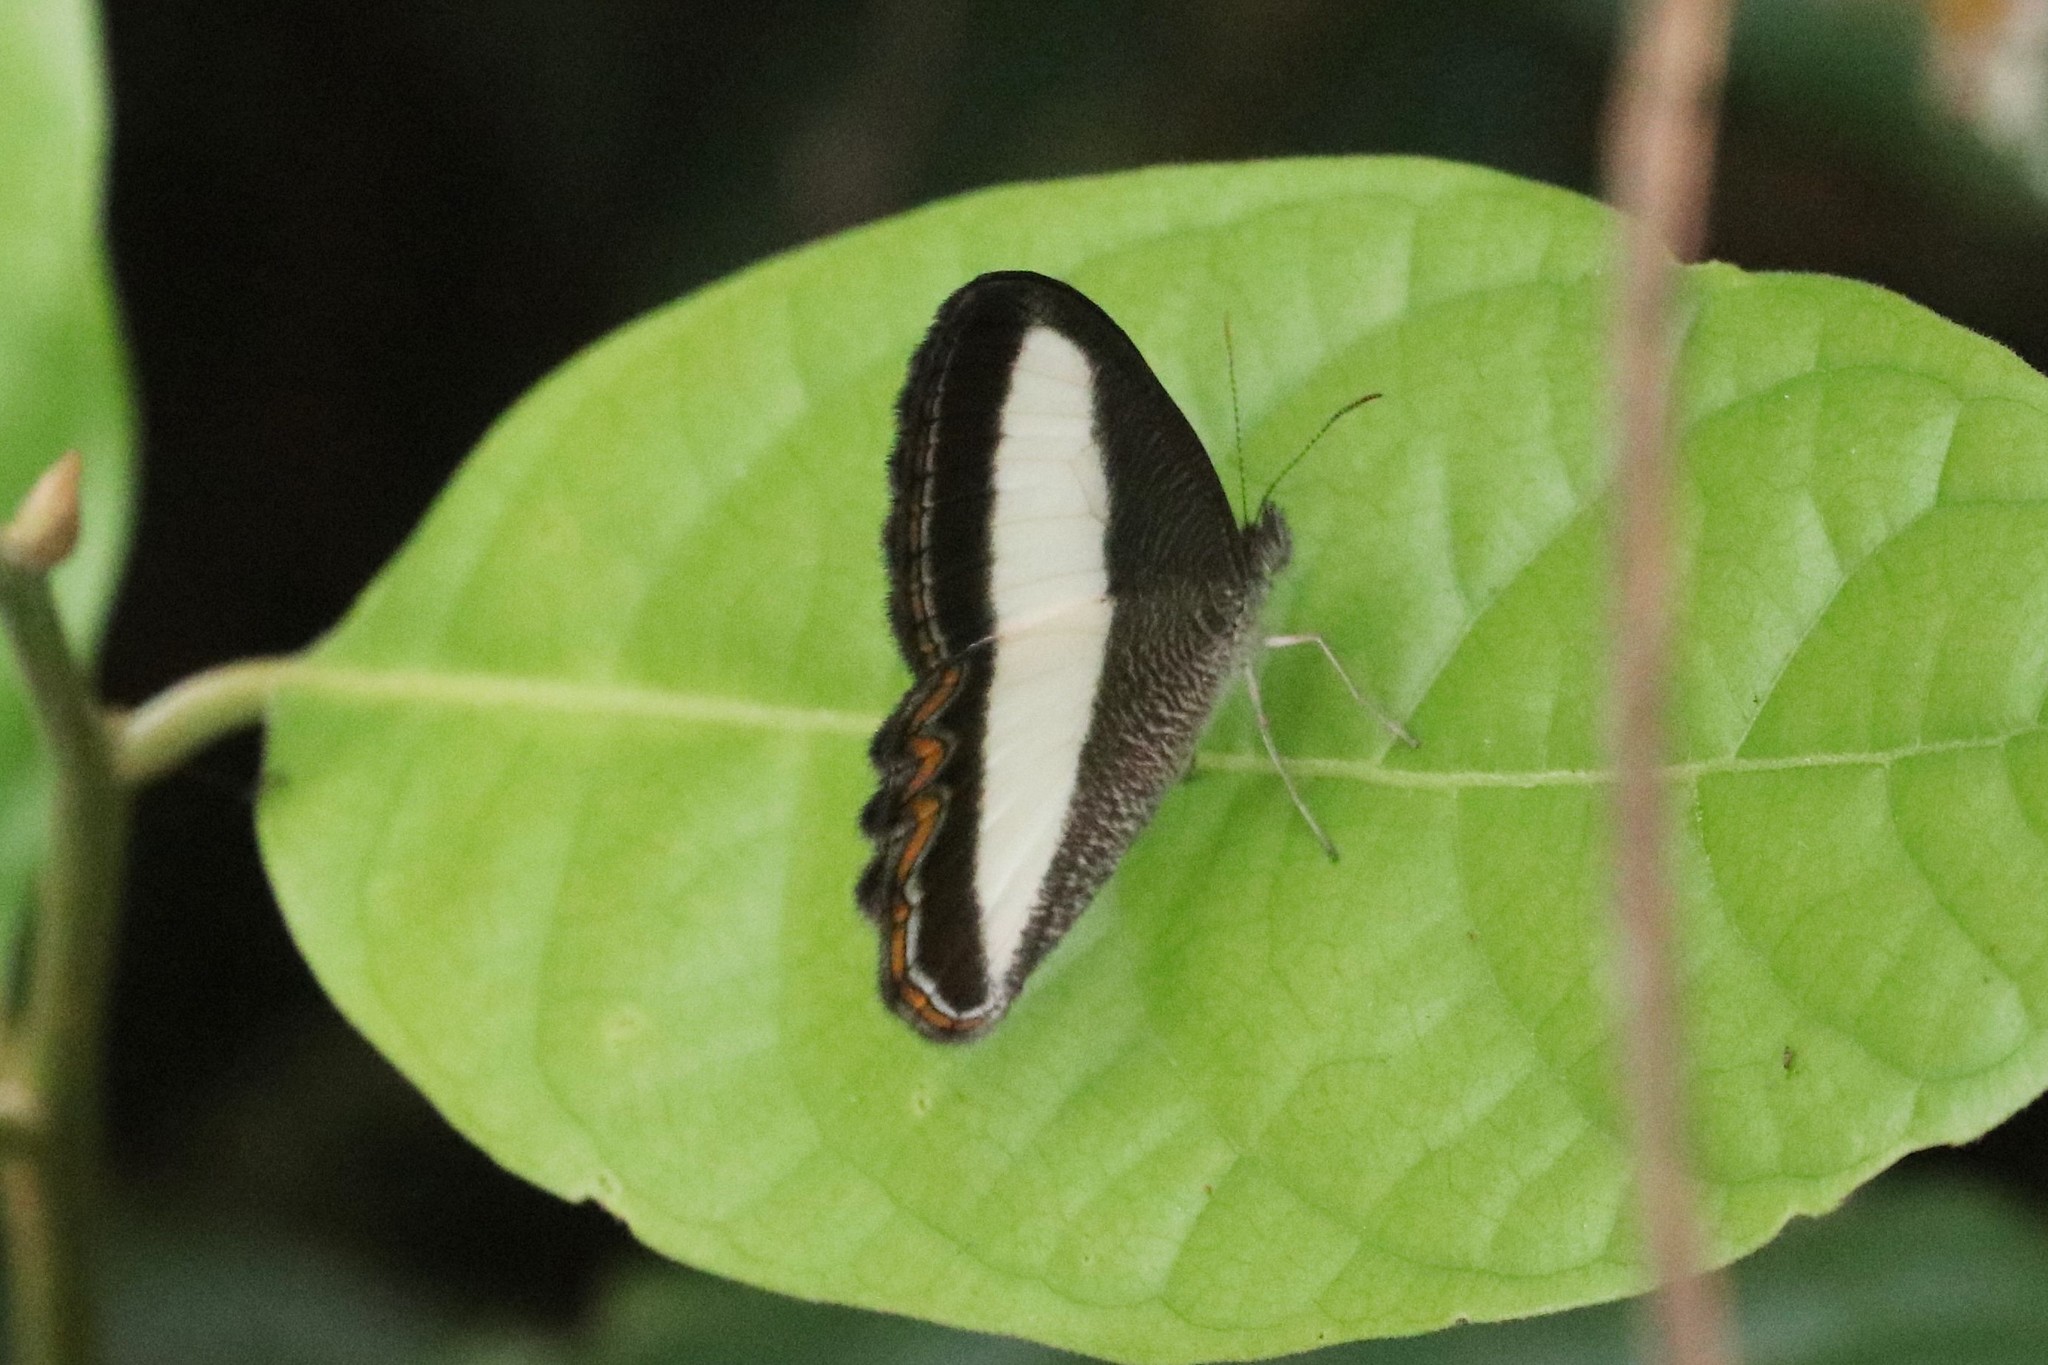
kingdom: Animalia
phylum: Arthropoda
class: Insecta
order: Lepidoptera
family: Nymphalidae
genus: Oressinoma
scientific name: Oressinoma typhla
